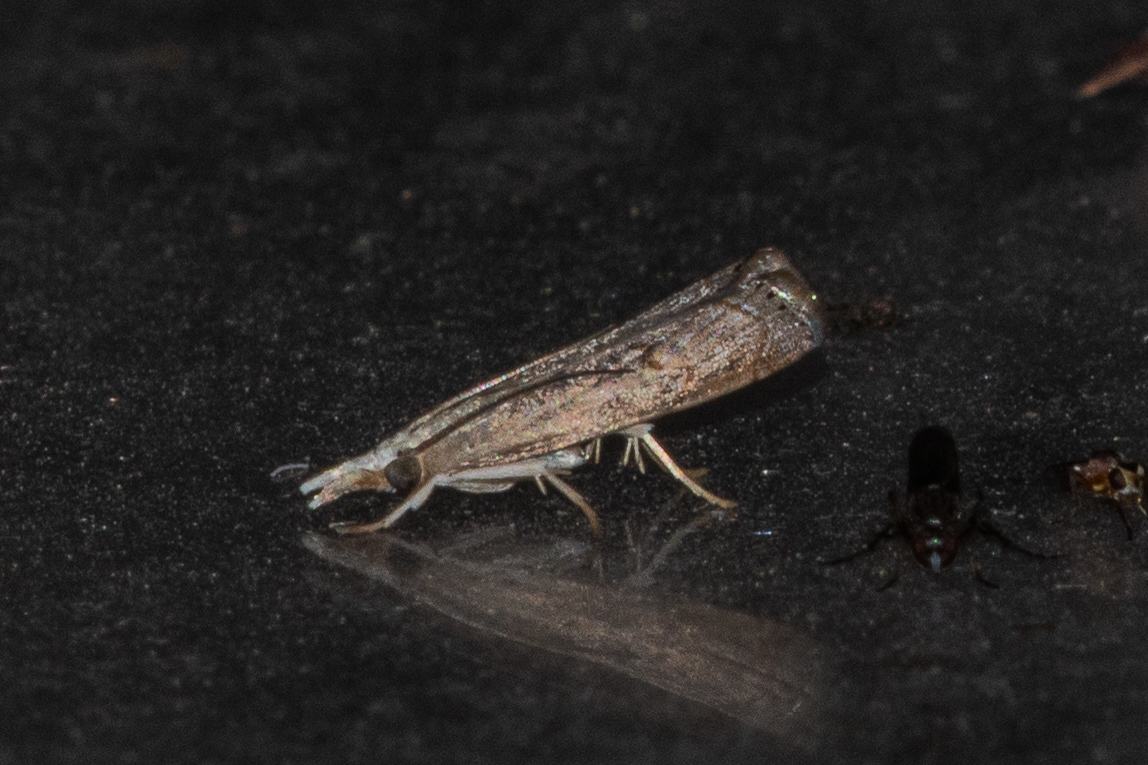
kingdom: Animalia
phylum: Arthropoda
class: Insecta
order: Lepidoptera
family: Crambidae
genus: Parapediasia
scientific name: Parapediasia teterellus
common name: Bluegrass webworm moth
